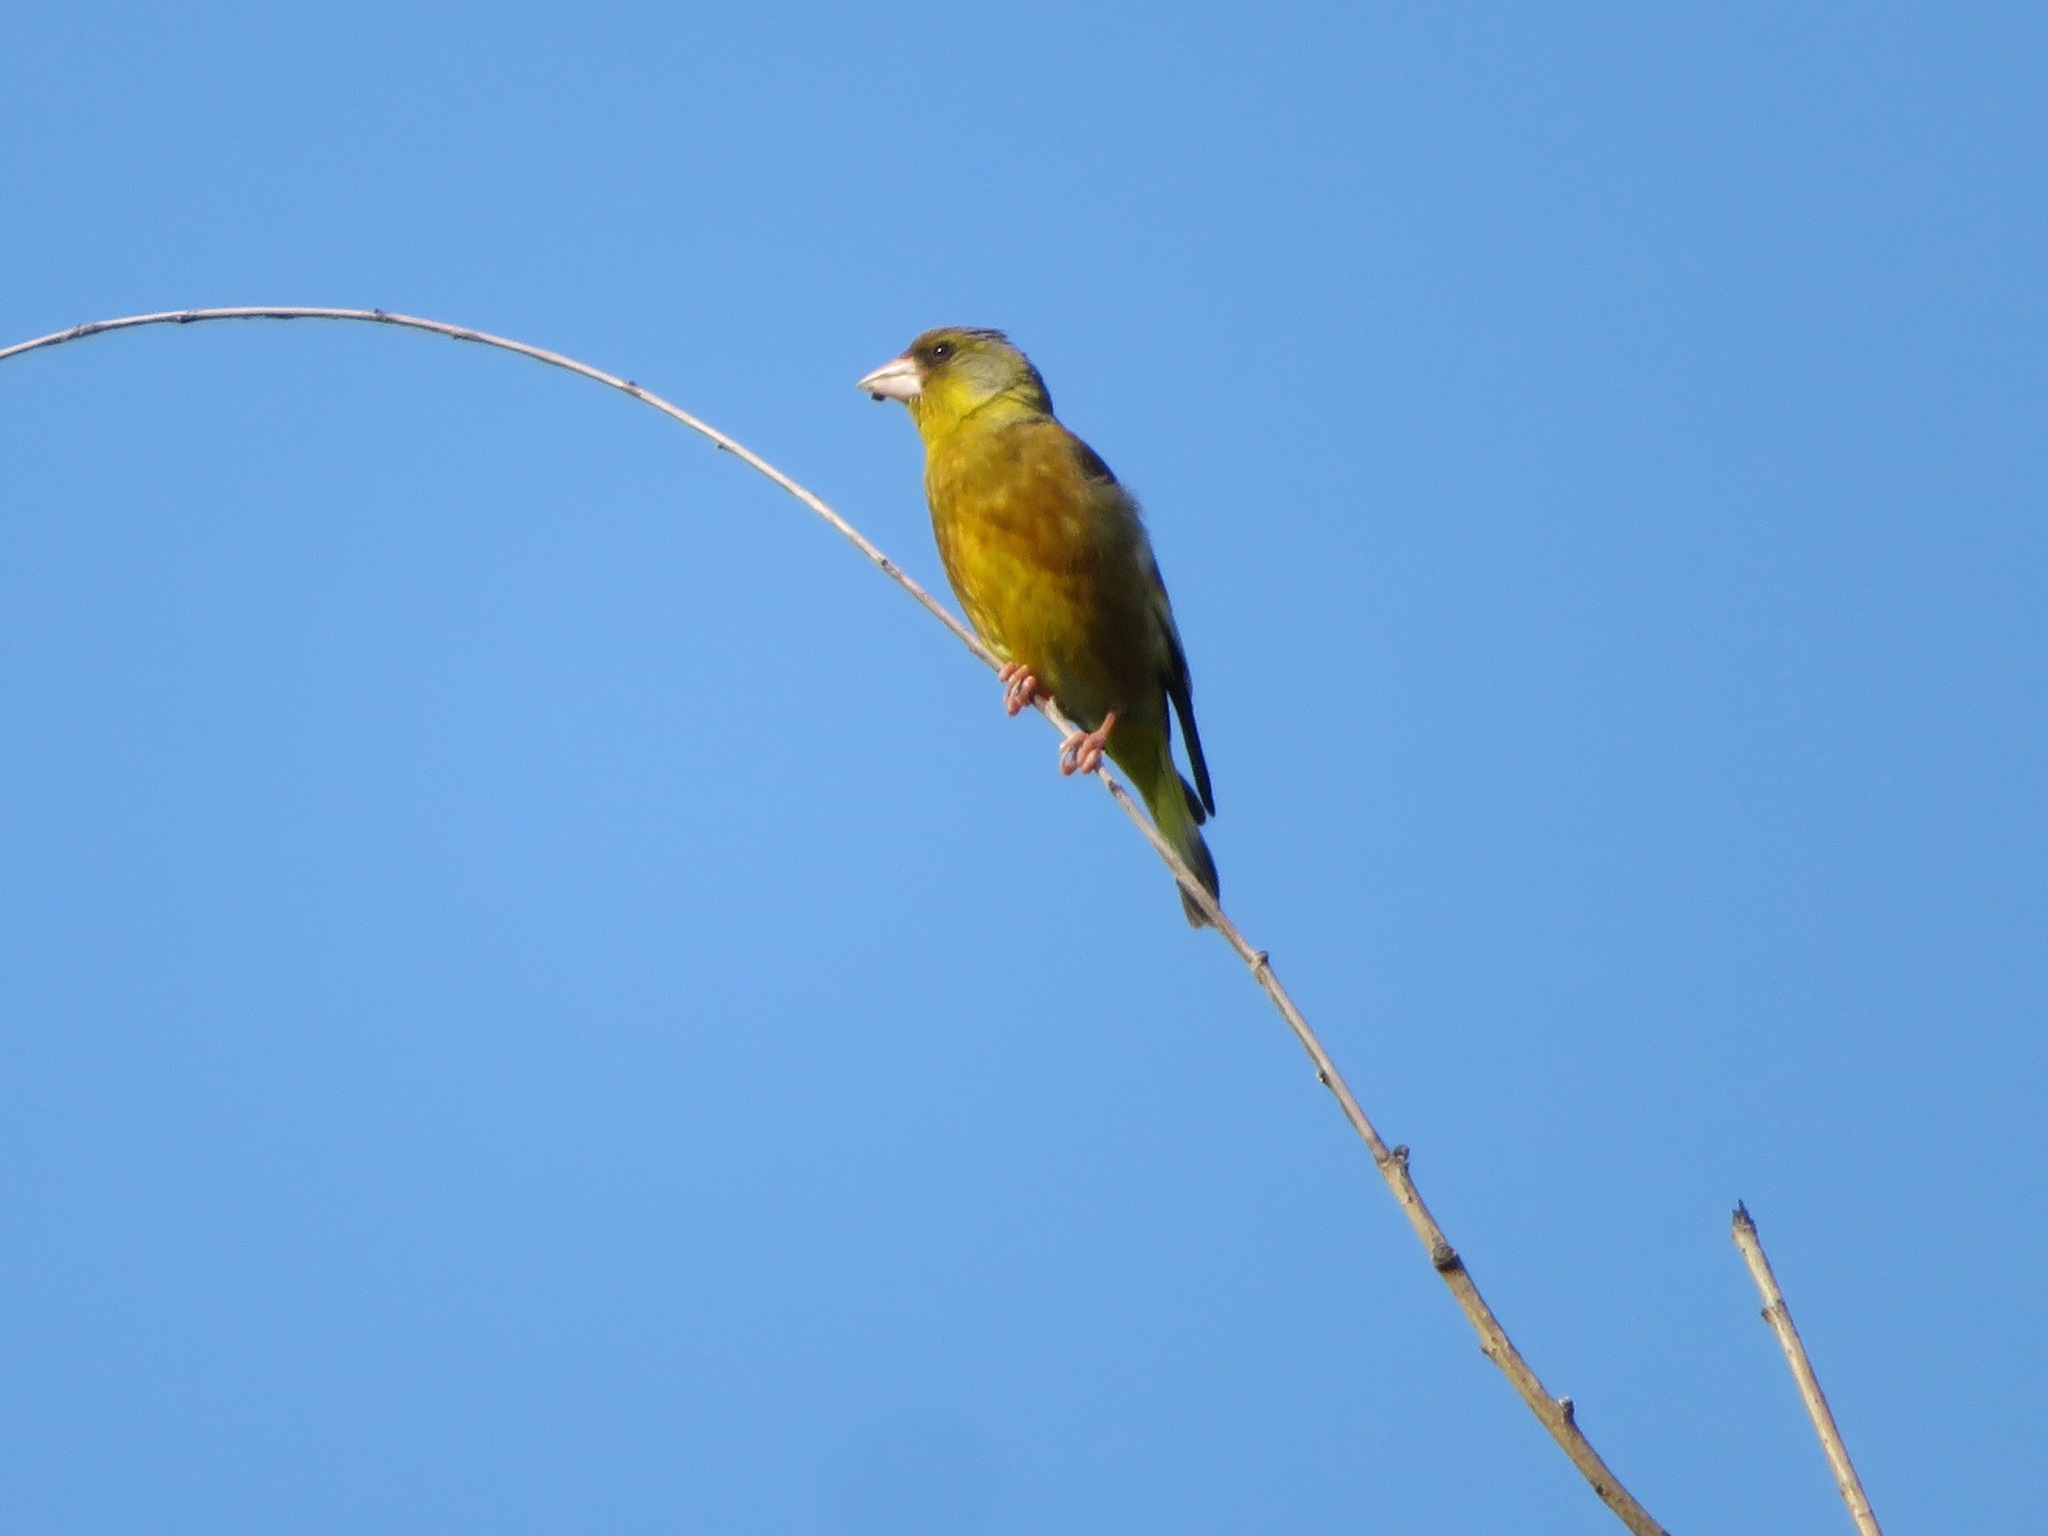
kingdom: Plantae
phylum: Tracheophyta
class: Liliopsida
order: Poales
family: Poaceae
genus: Chloris
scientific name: Chloris sinica
